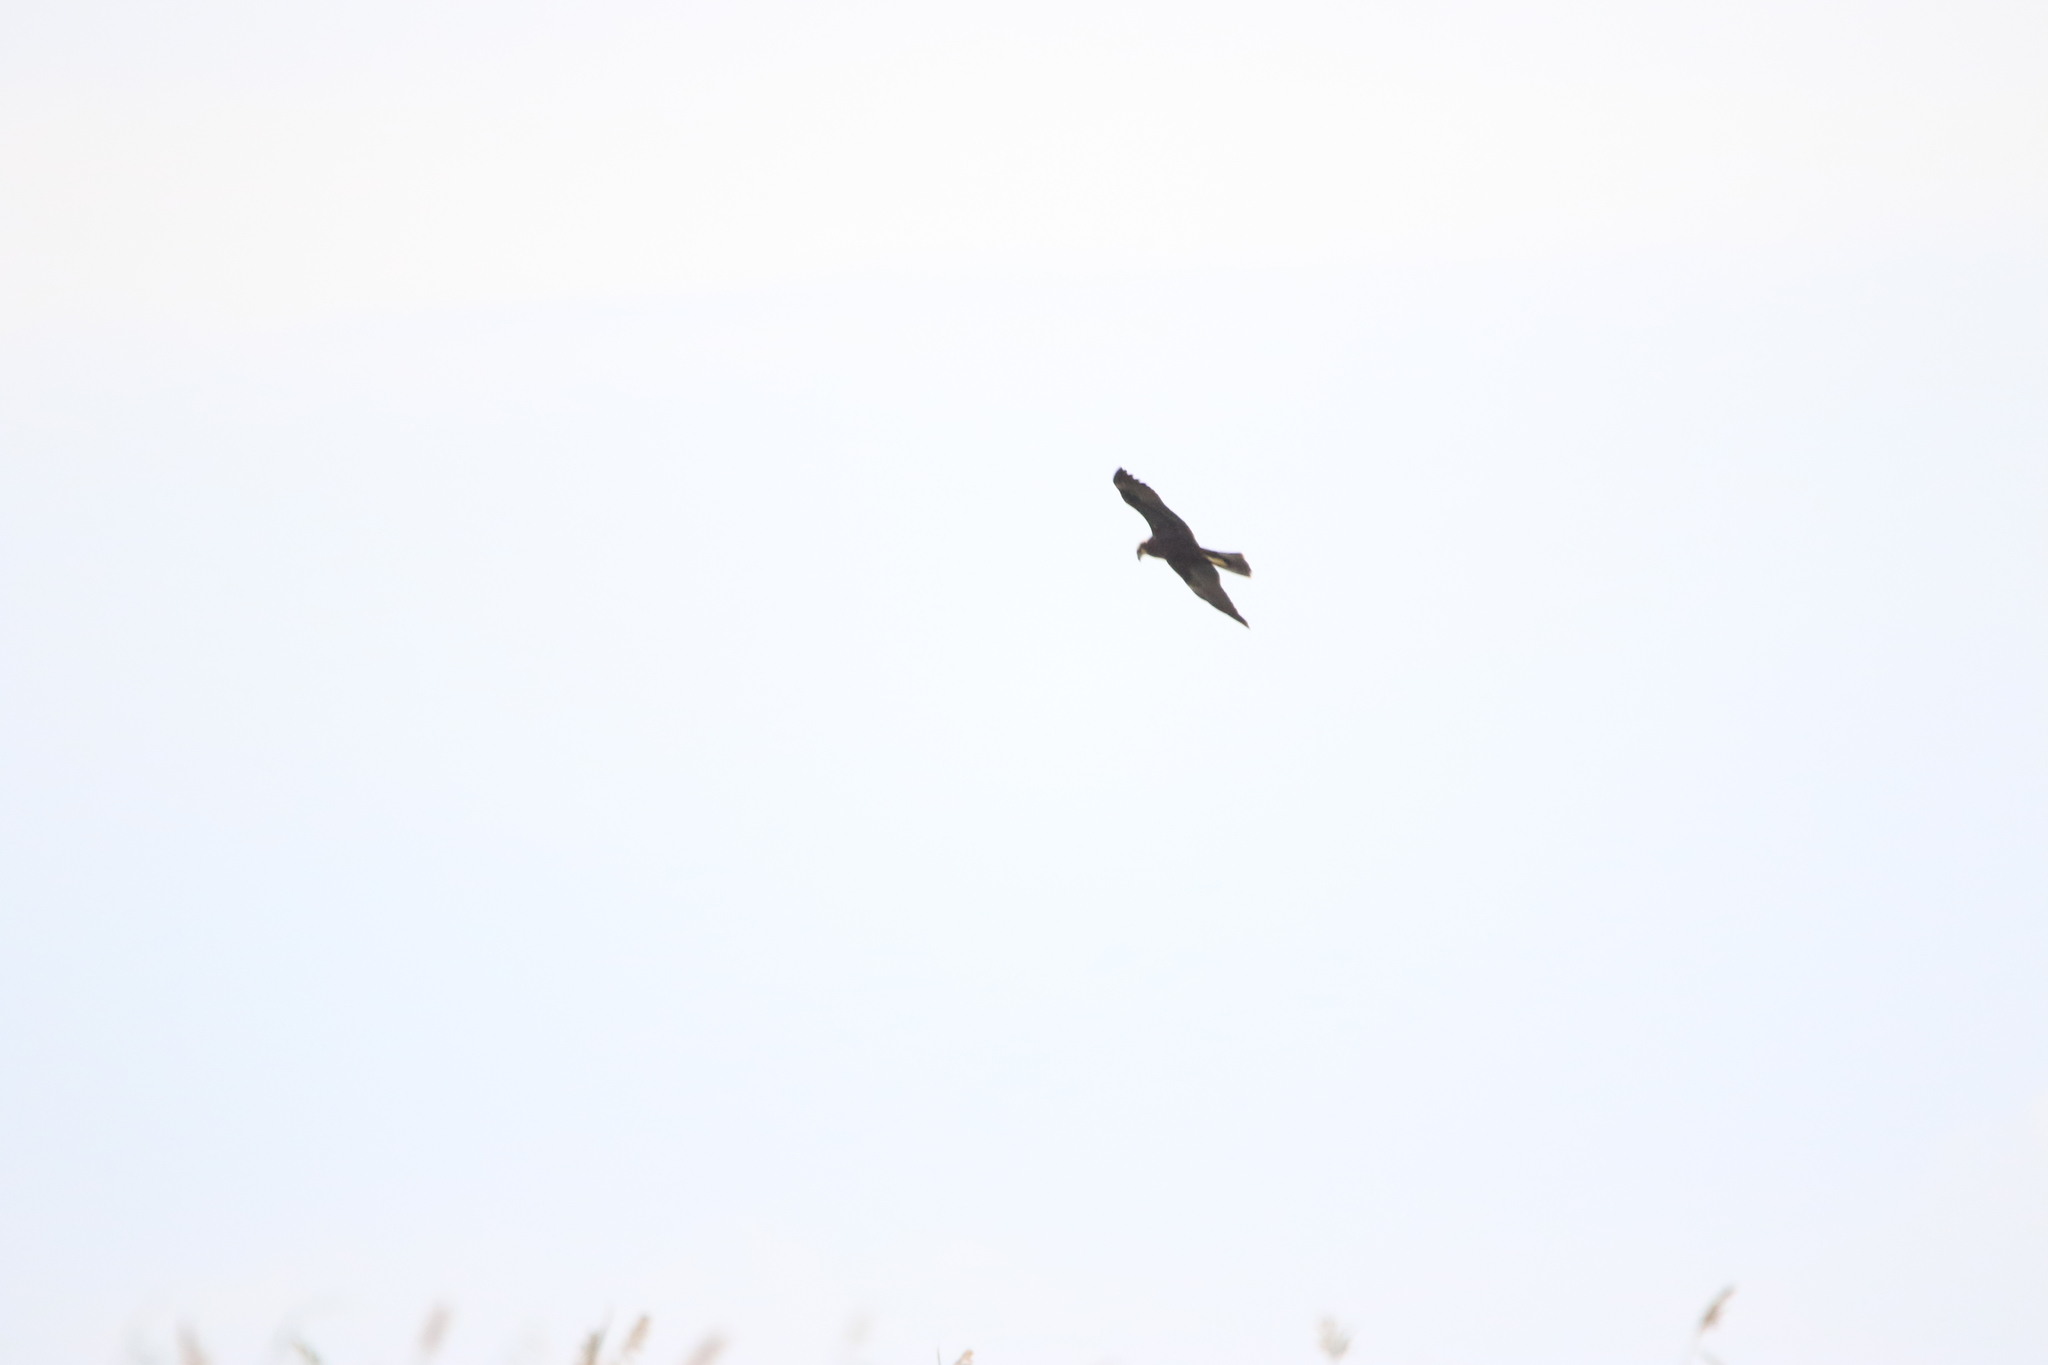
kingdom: Animalia
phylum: Chordata
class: Aves
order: Accipitriformes
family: Accipitridae
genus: Circus
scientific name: Circus aeruginosus
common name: Western marsh harrier
